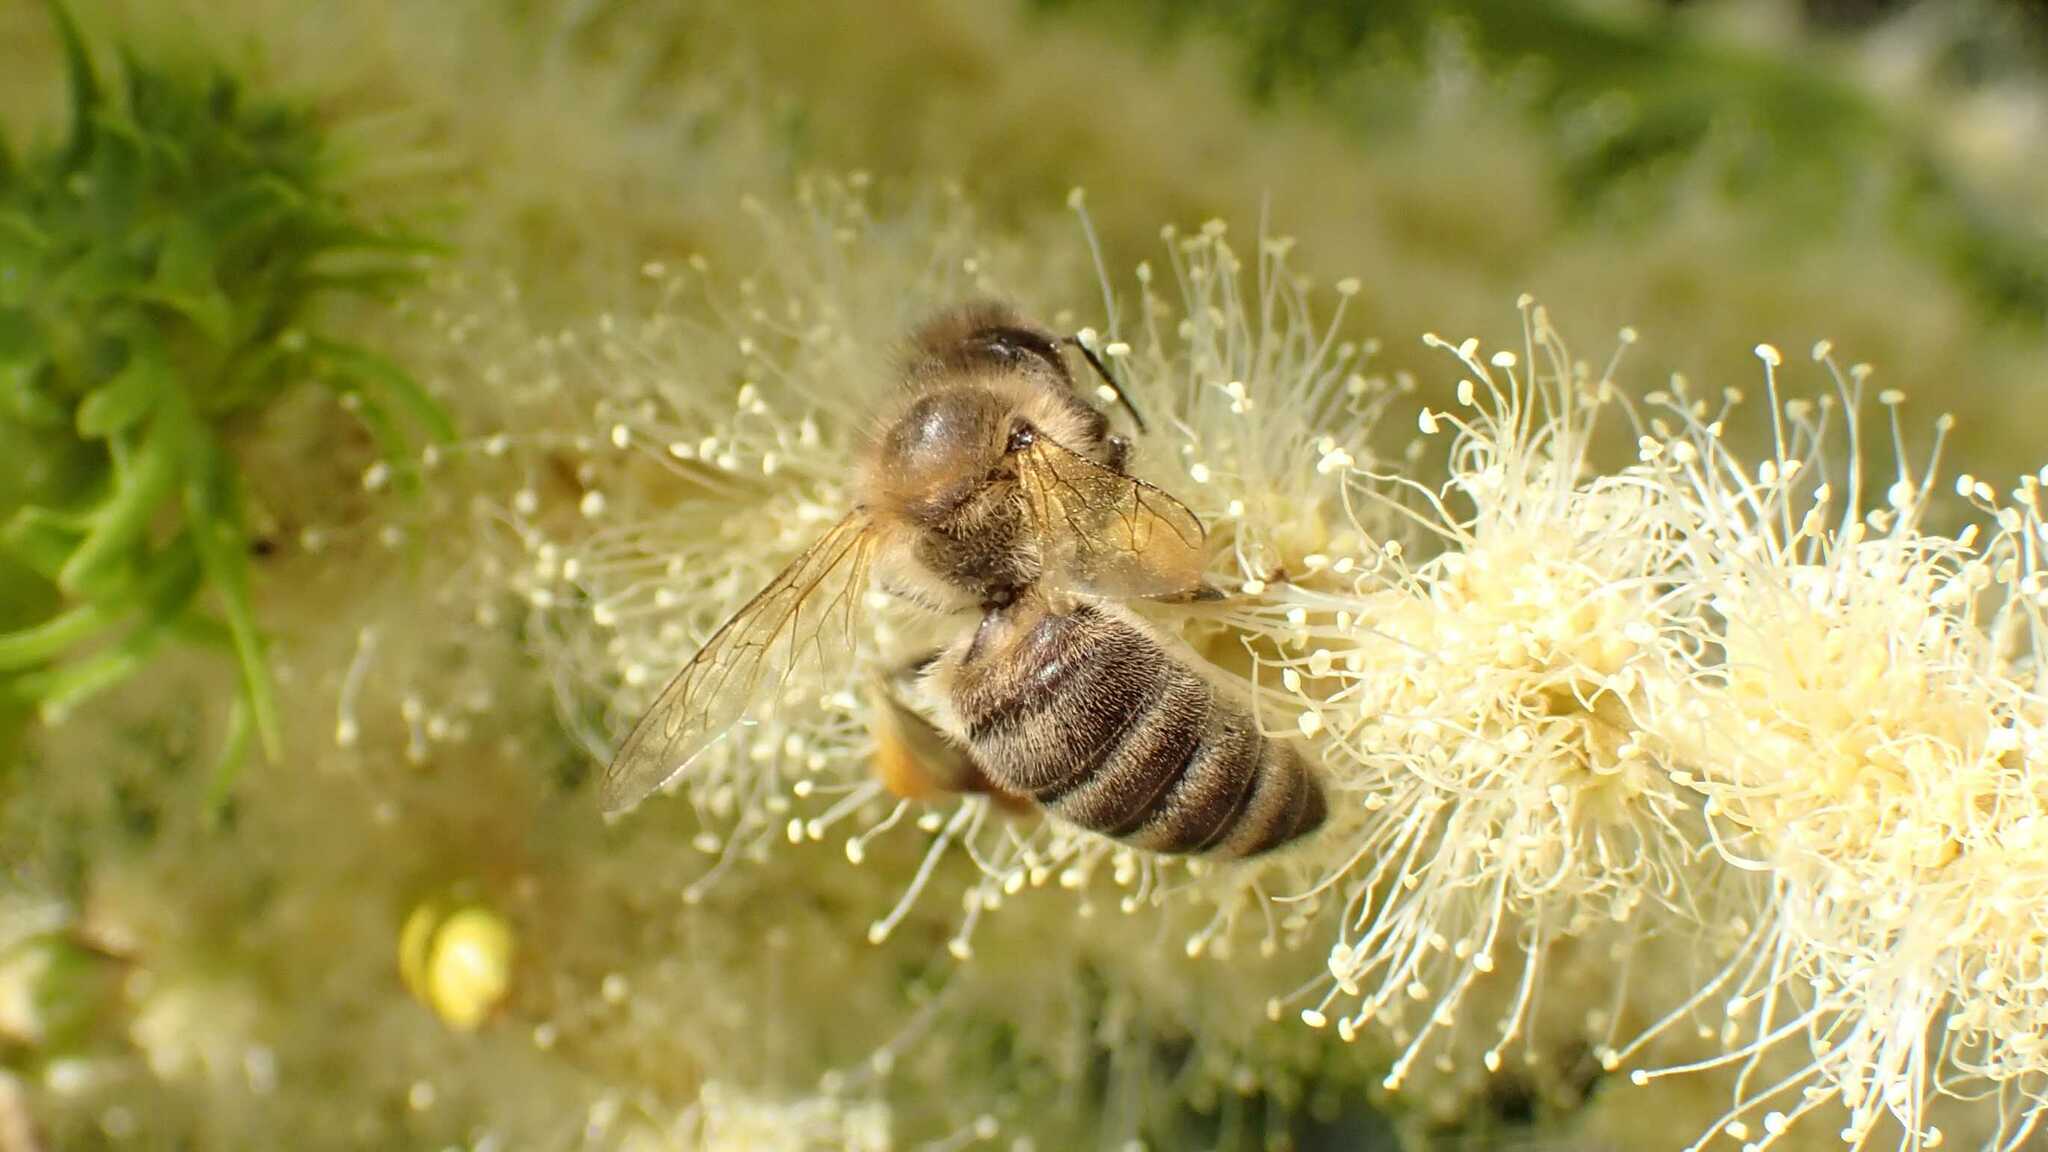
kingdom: Animalia
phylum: Arthropoda
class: Insecta
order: Hymenoptera
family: Apidae
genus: Apis
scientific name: Apis mellifera
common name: Honey bee
